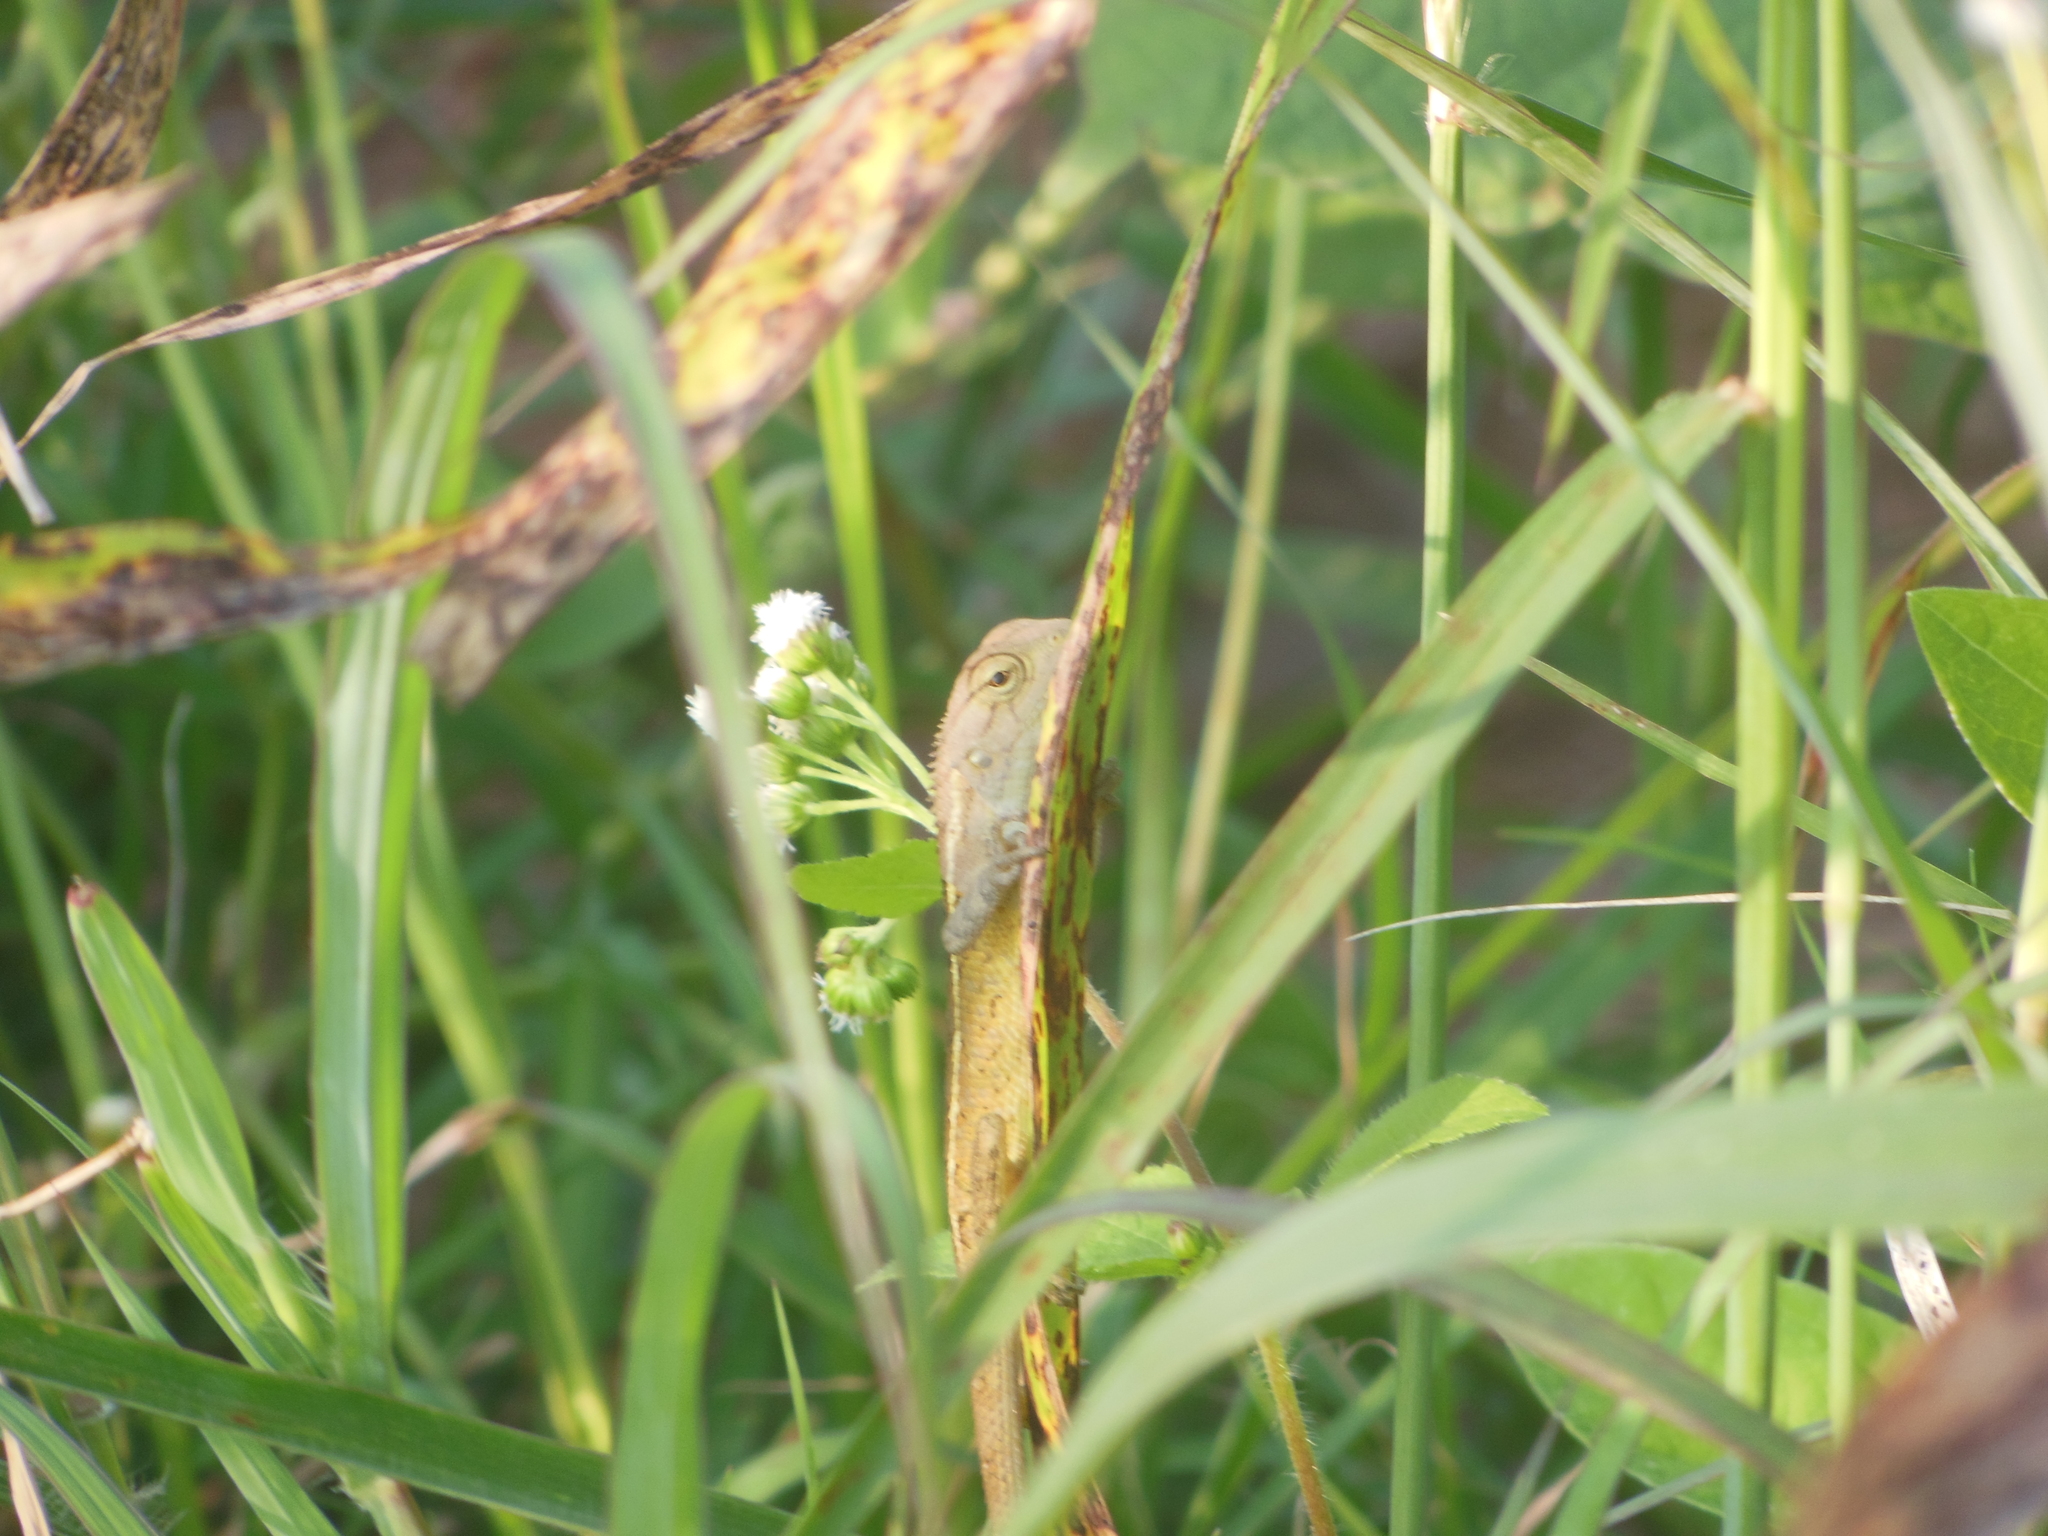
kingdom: Animalia
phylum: Chordata
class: Squamata
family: Agamidae
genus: Calotes
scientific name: Calotes versicolor
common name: Oriental garden lizard
